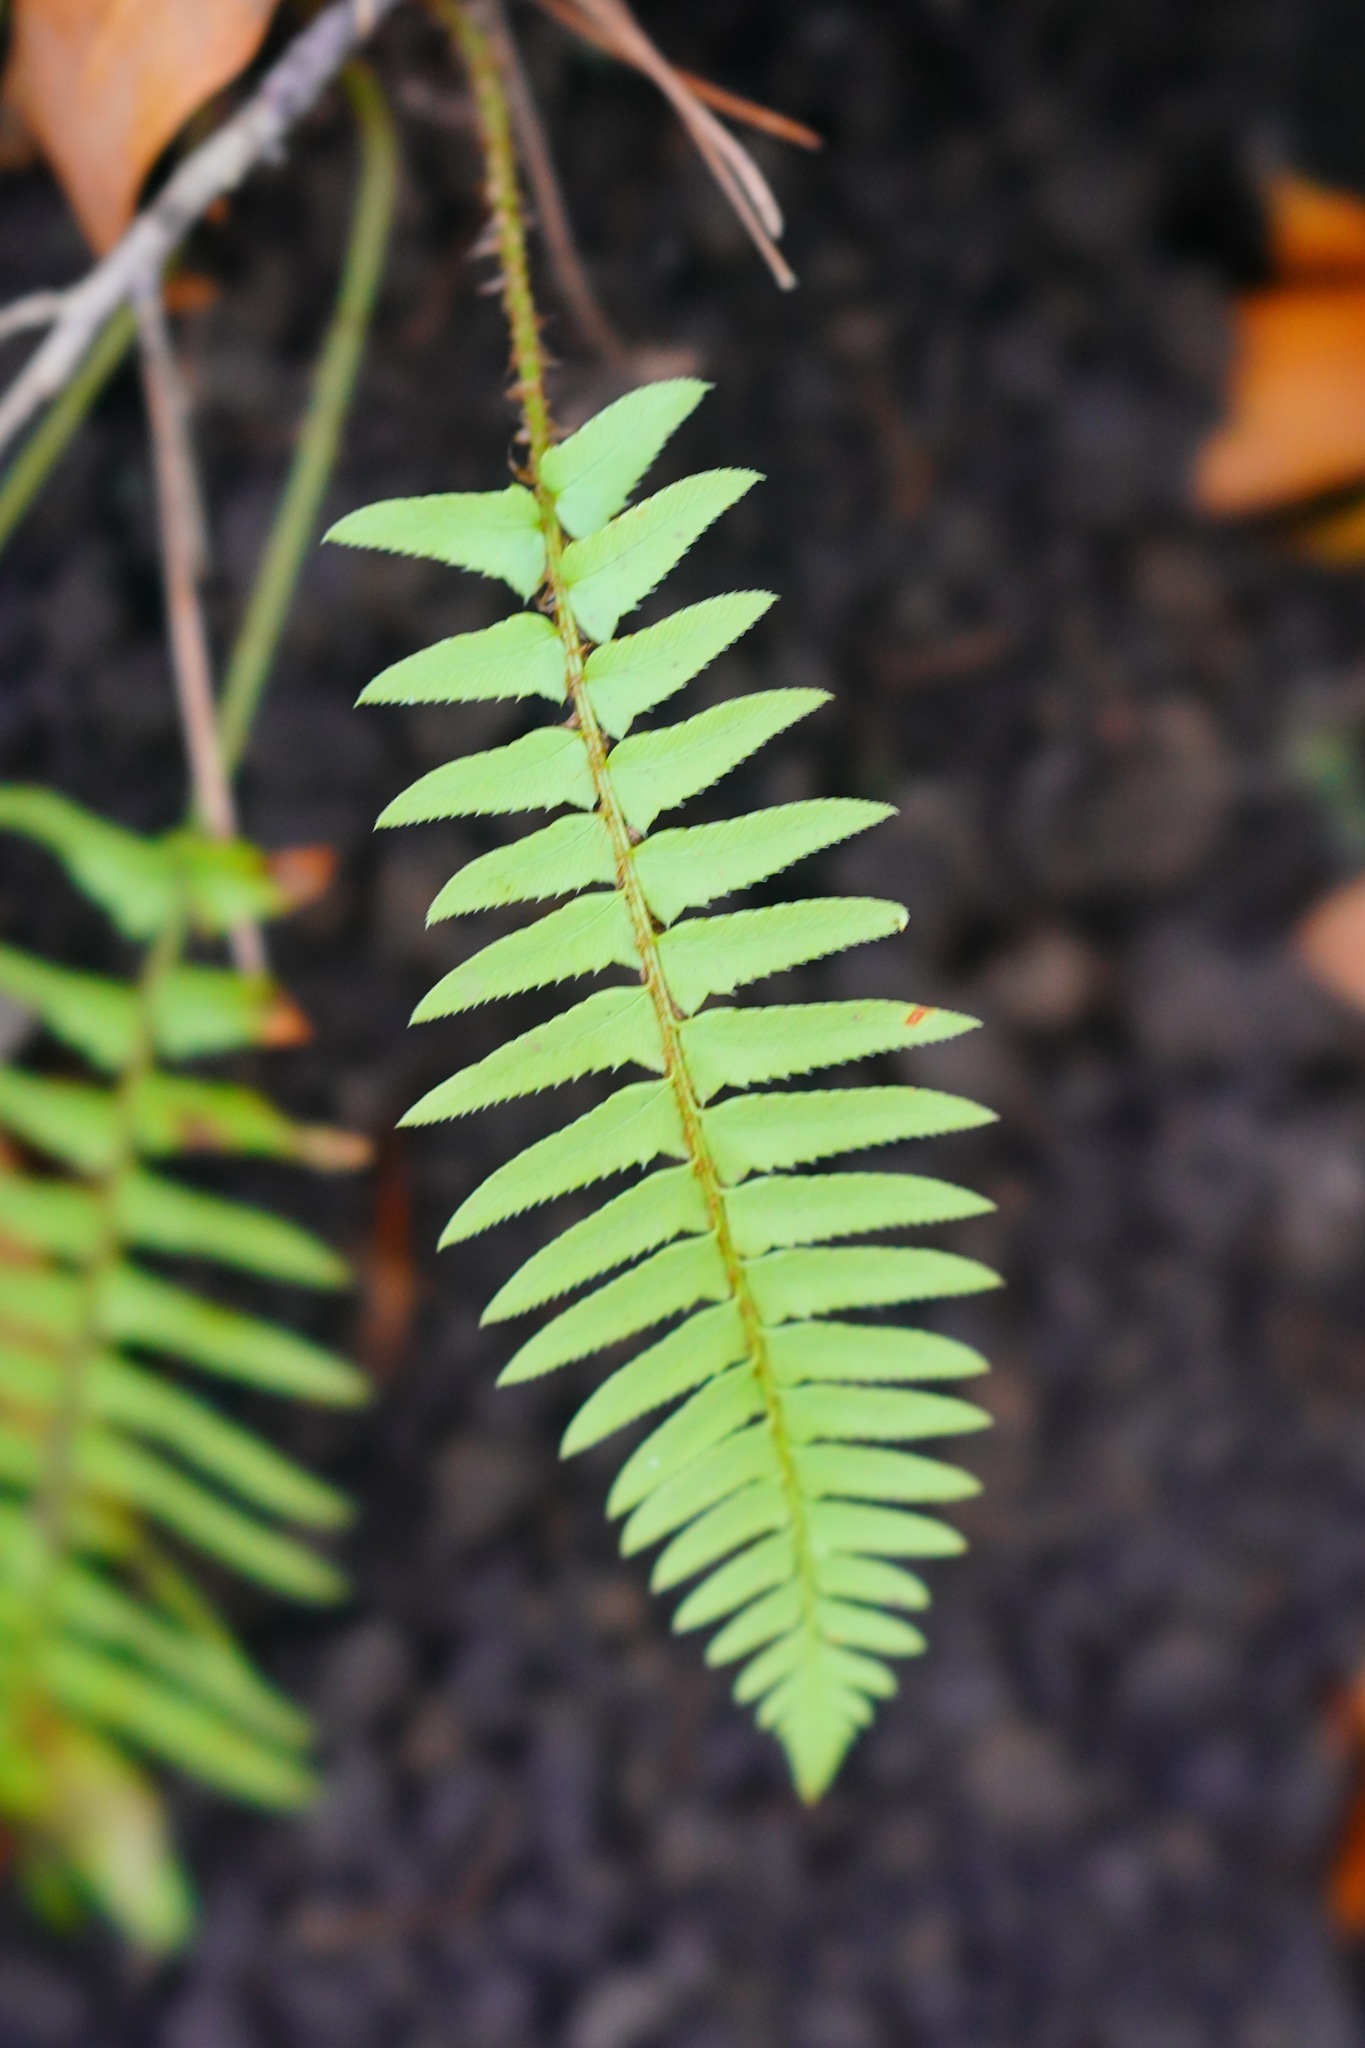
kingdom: Plantae
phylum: Tracheophyta
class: Polypodiopsida
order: Polypodiales
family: Dryopteridaceae
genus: Polystichum
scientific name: Polystichum munitum
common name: Western sword-fern
